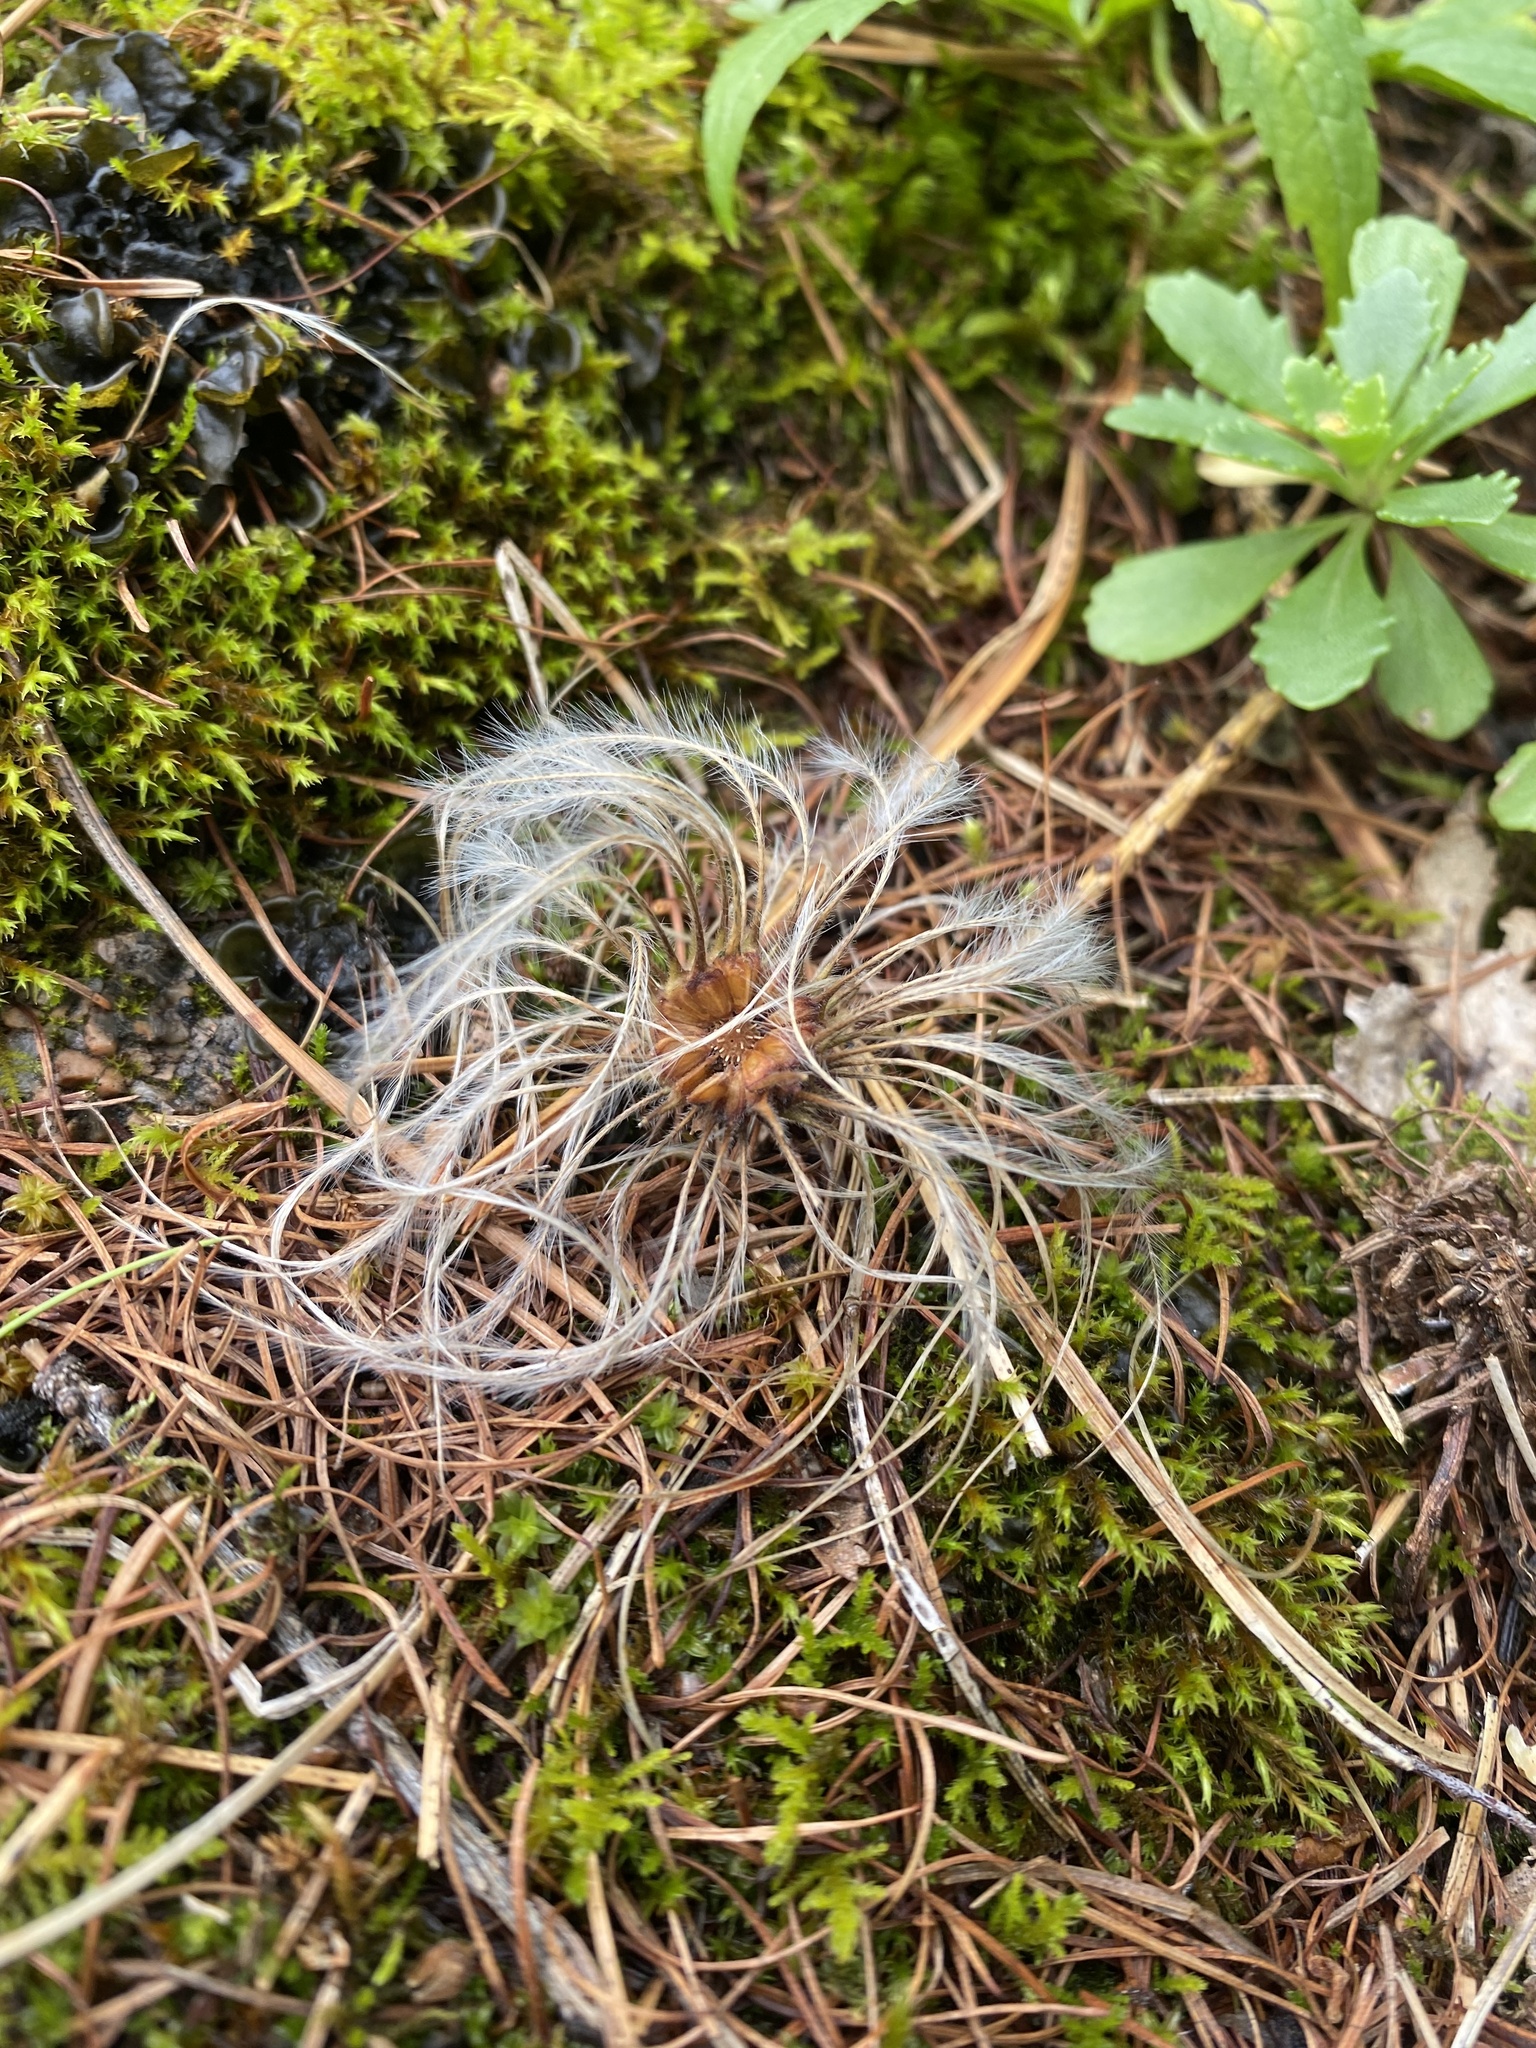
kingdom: Plantae
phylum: Tracheophyta
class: Magnoliopsida
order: Ranunculales
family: Ranunculaceae
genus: Clematis
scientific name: Clematis sibirica
